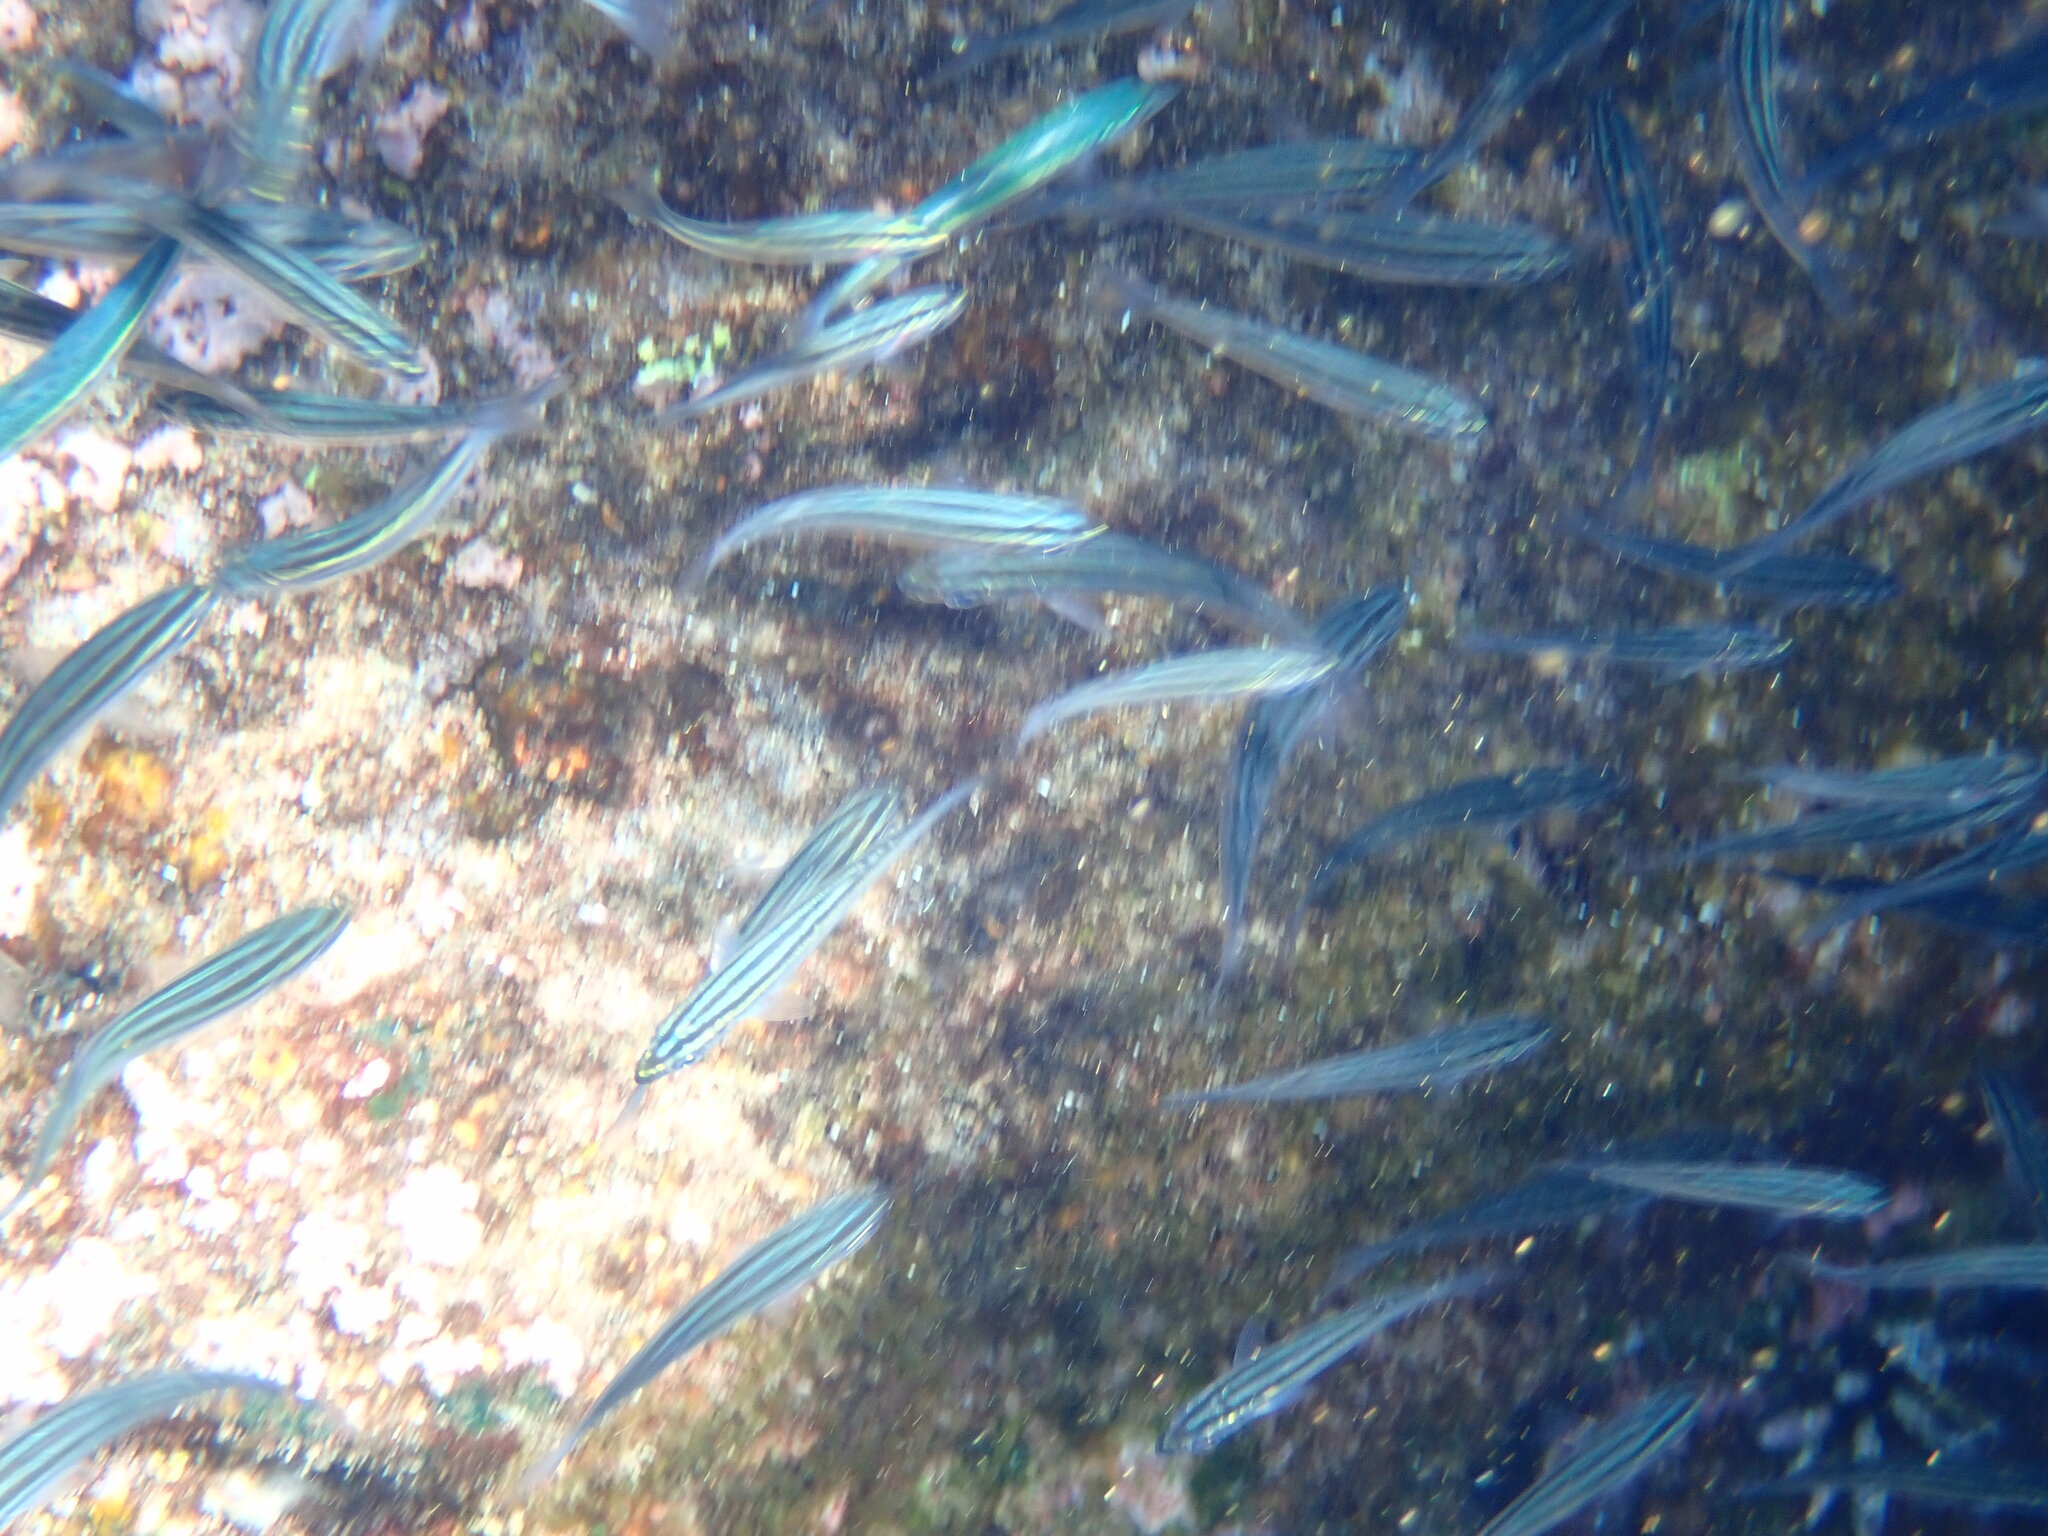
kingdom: Animalia
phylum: Chordata
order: Perciformes
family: Haemulidae
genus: Xenocys
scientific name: Xenocys jessiae
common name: Black-striped salema
